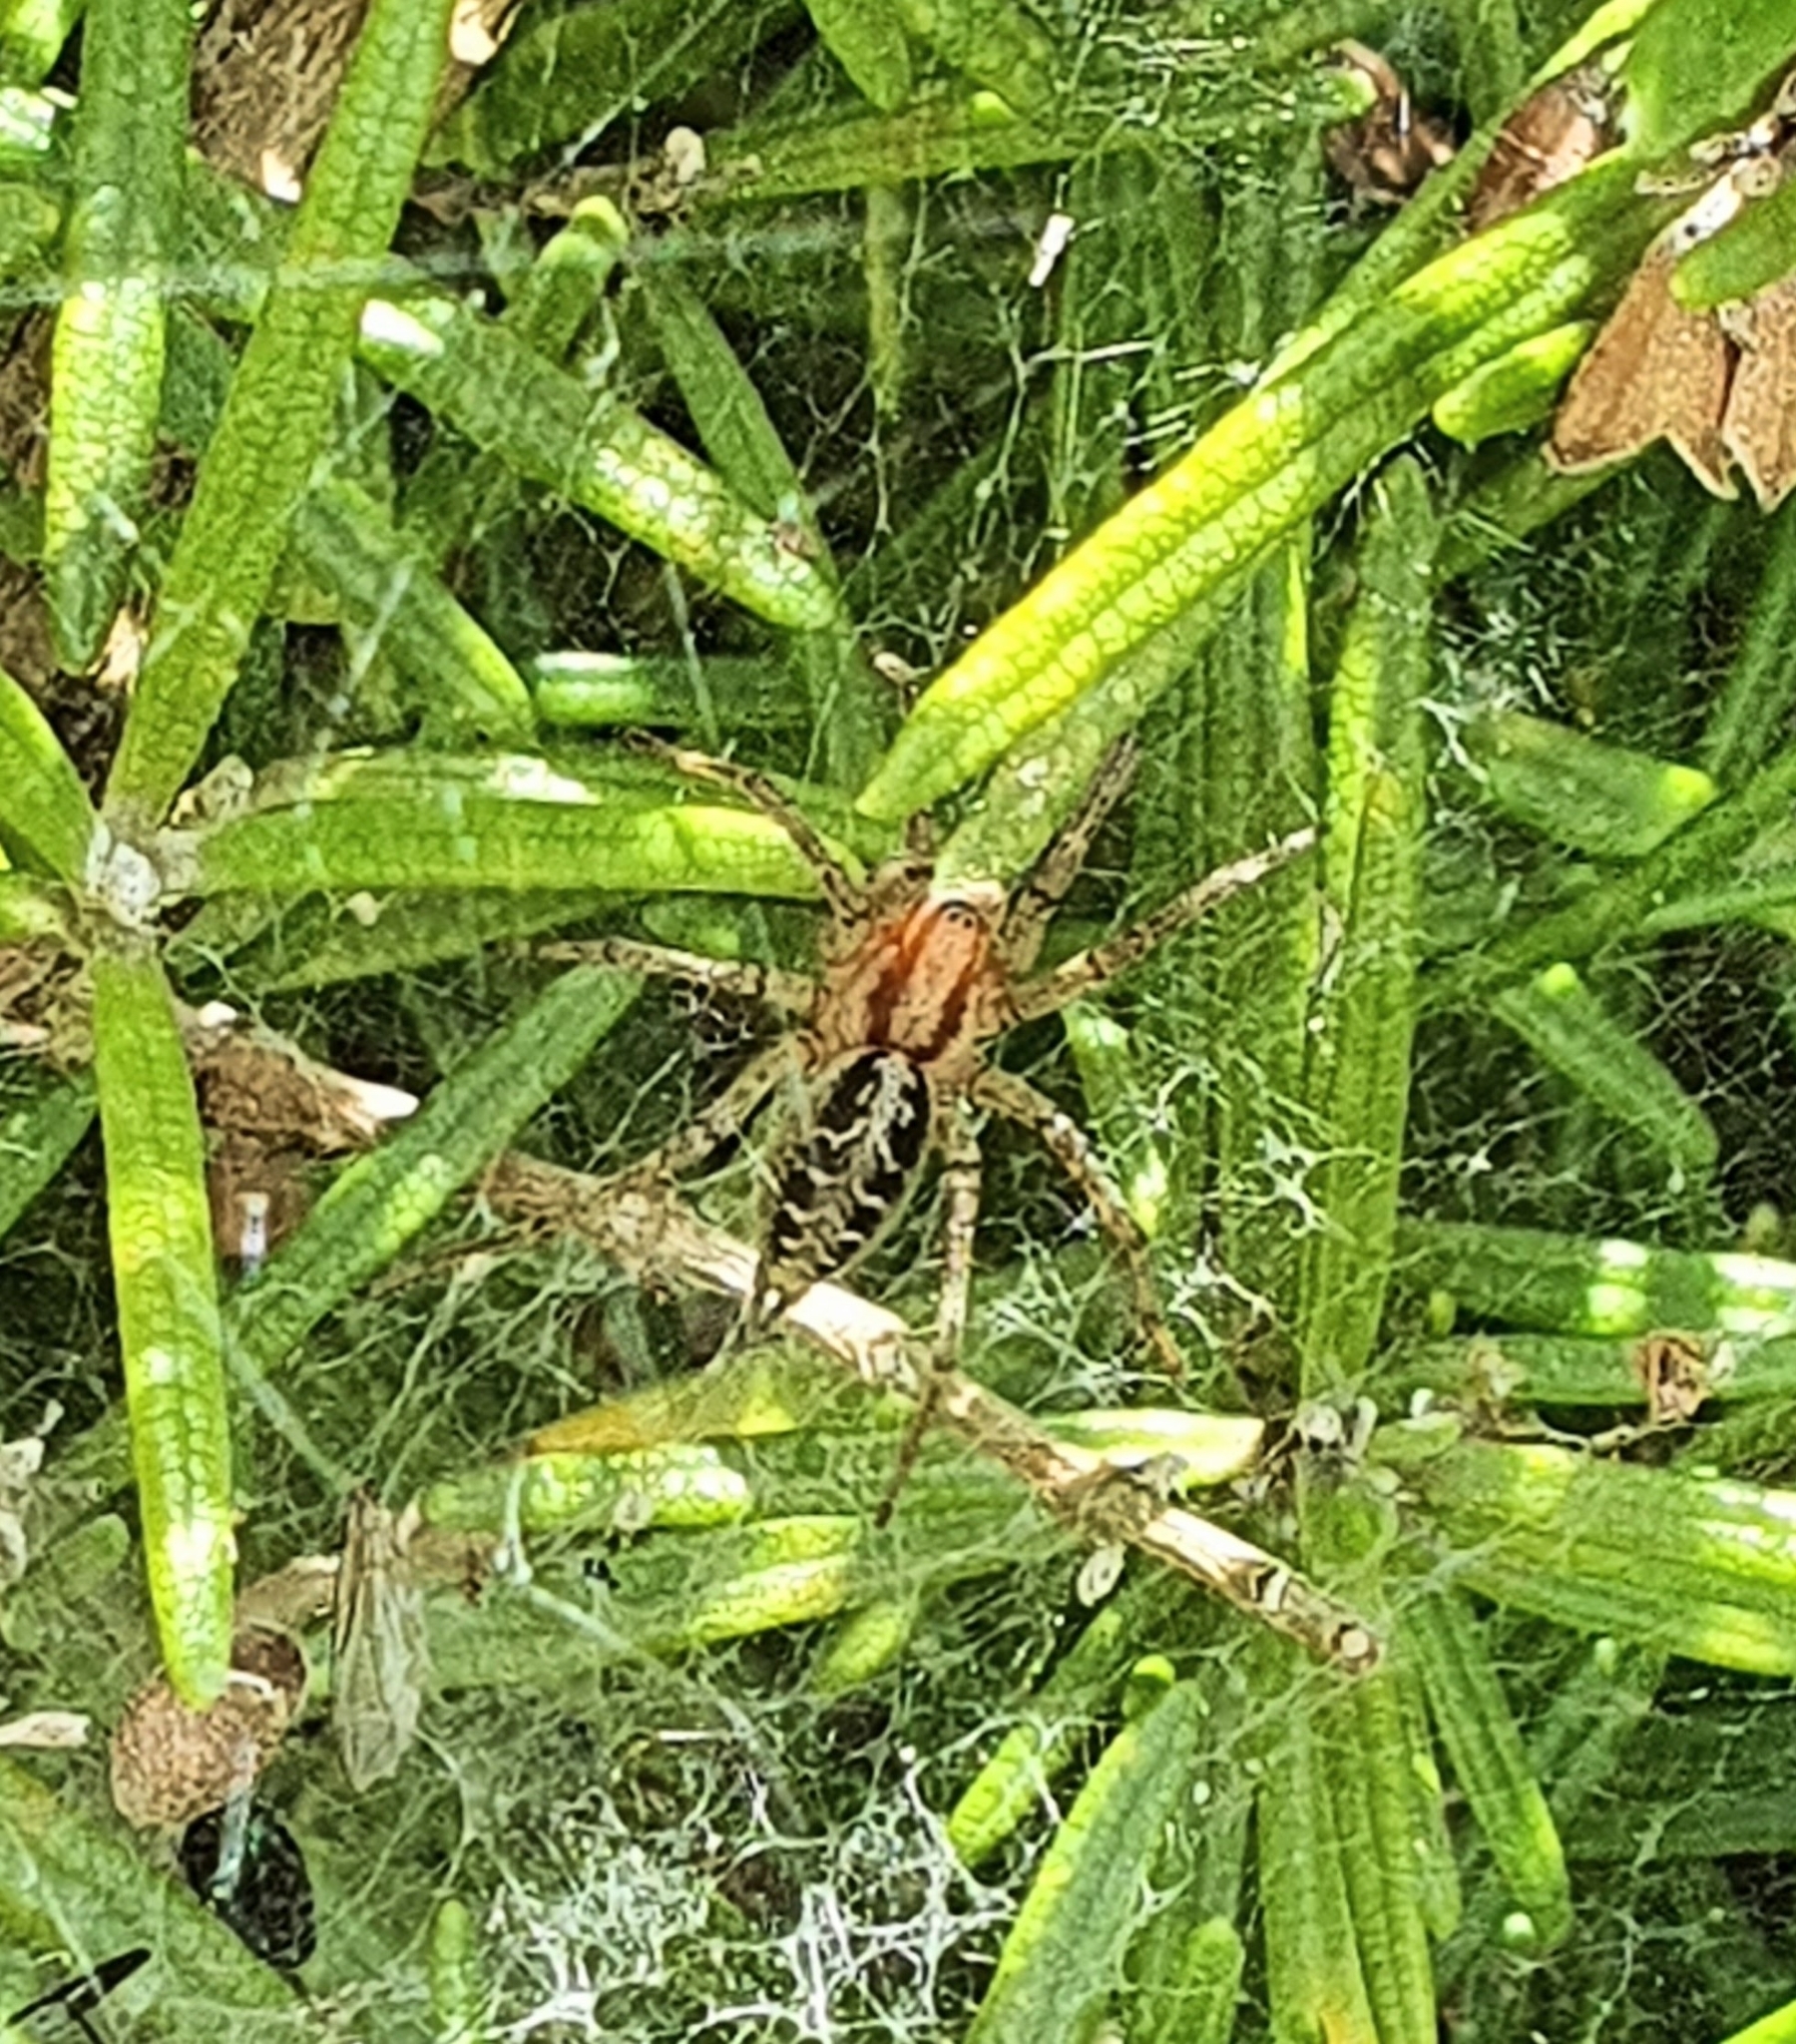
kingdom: Animalia
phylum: Arthropoda
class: Arachnida
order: Araneae
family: Agelenidae
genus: Agelena
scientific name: Agelena labyrinthica
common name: Labyrinth spider
